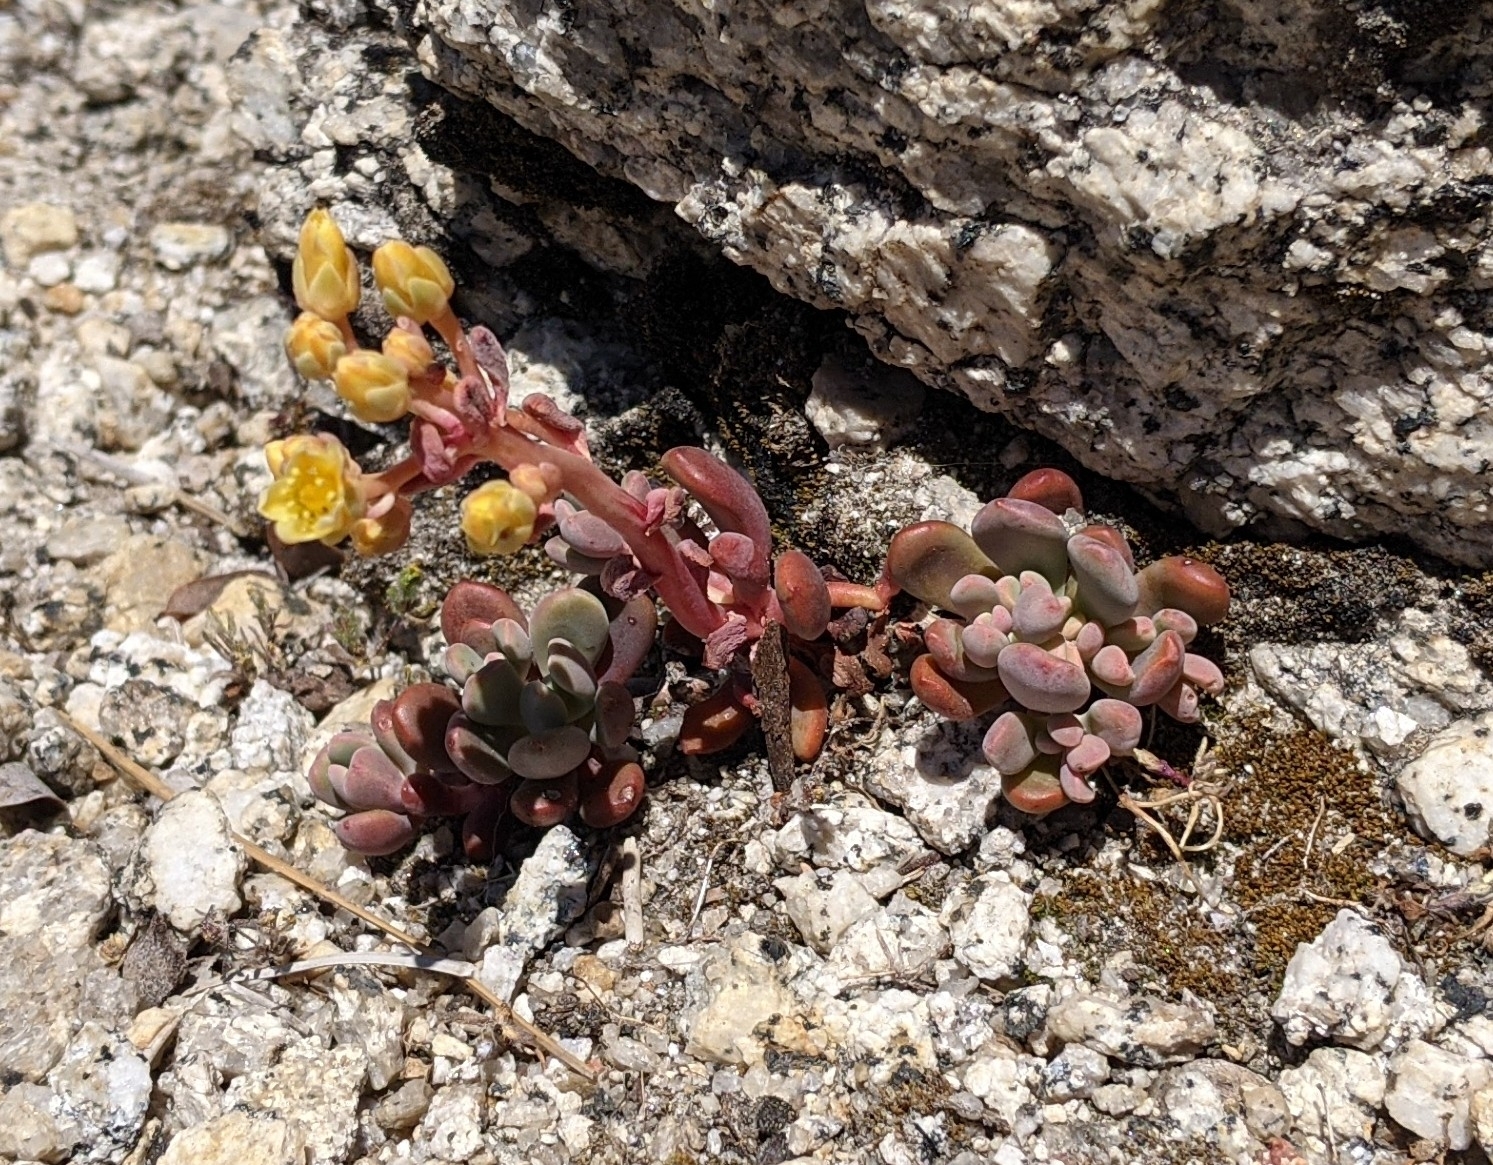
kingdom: Plantae
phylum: Tracheophyta
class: Magnoliopsida
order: Saxifragales
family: Crassulaceae
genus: Sedum
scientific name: Sedum obtusatum
